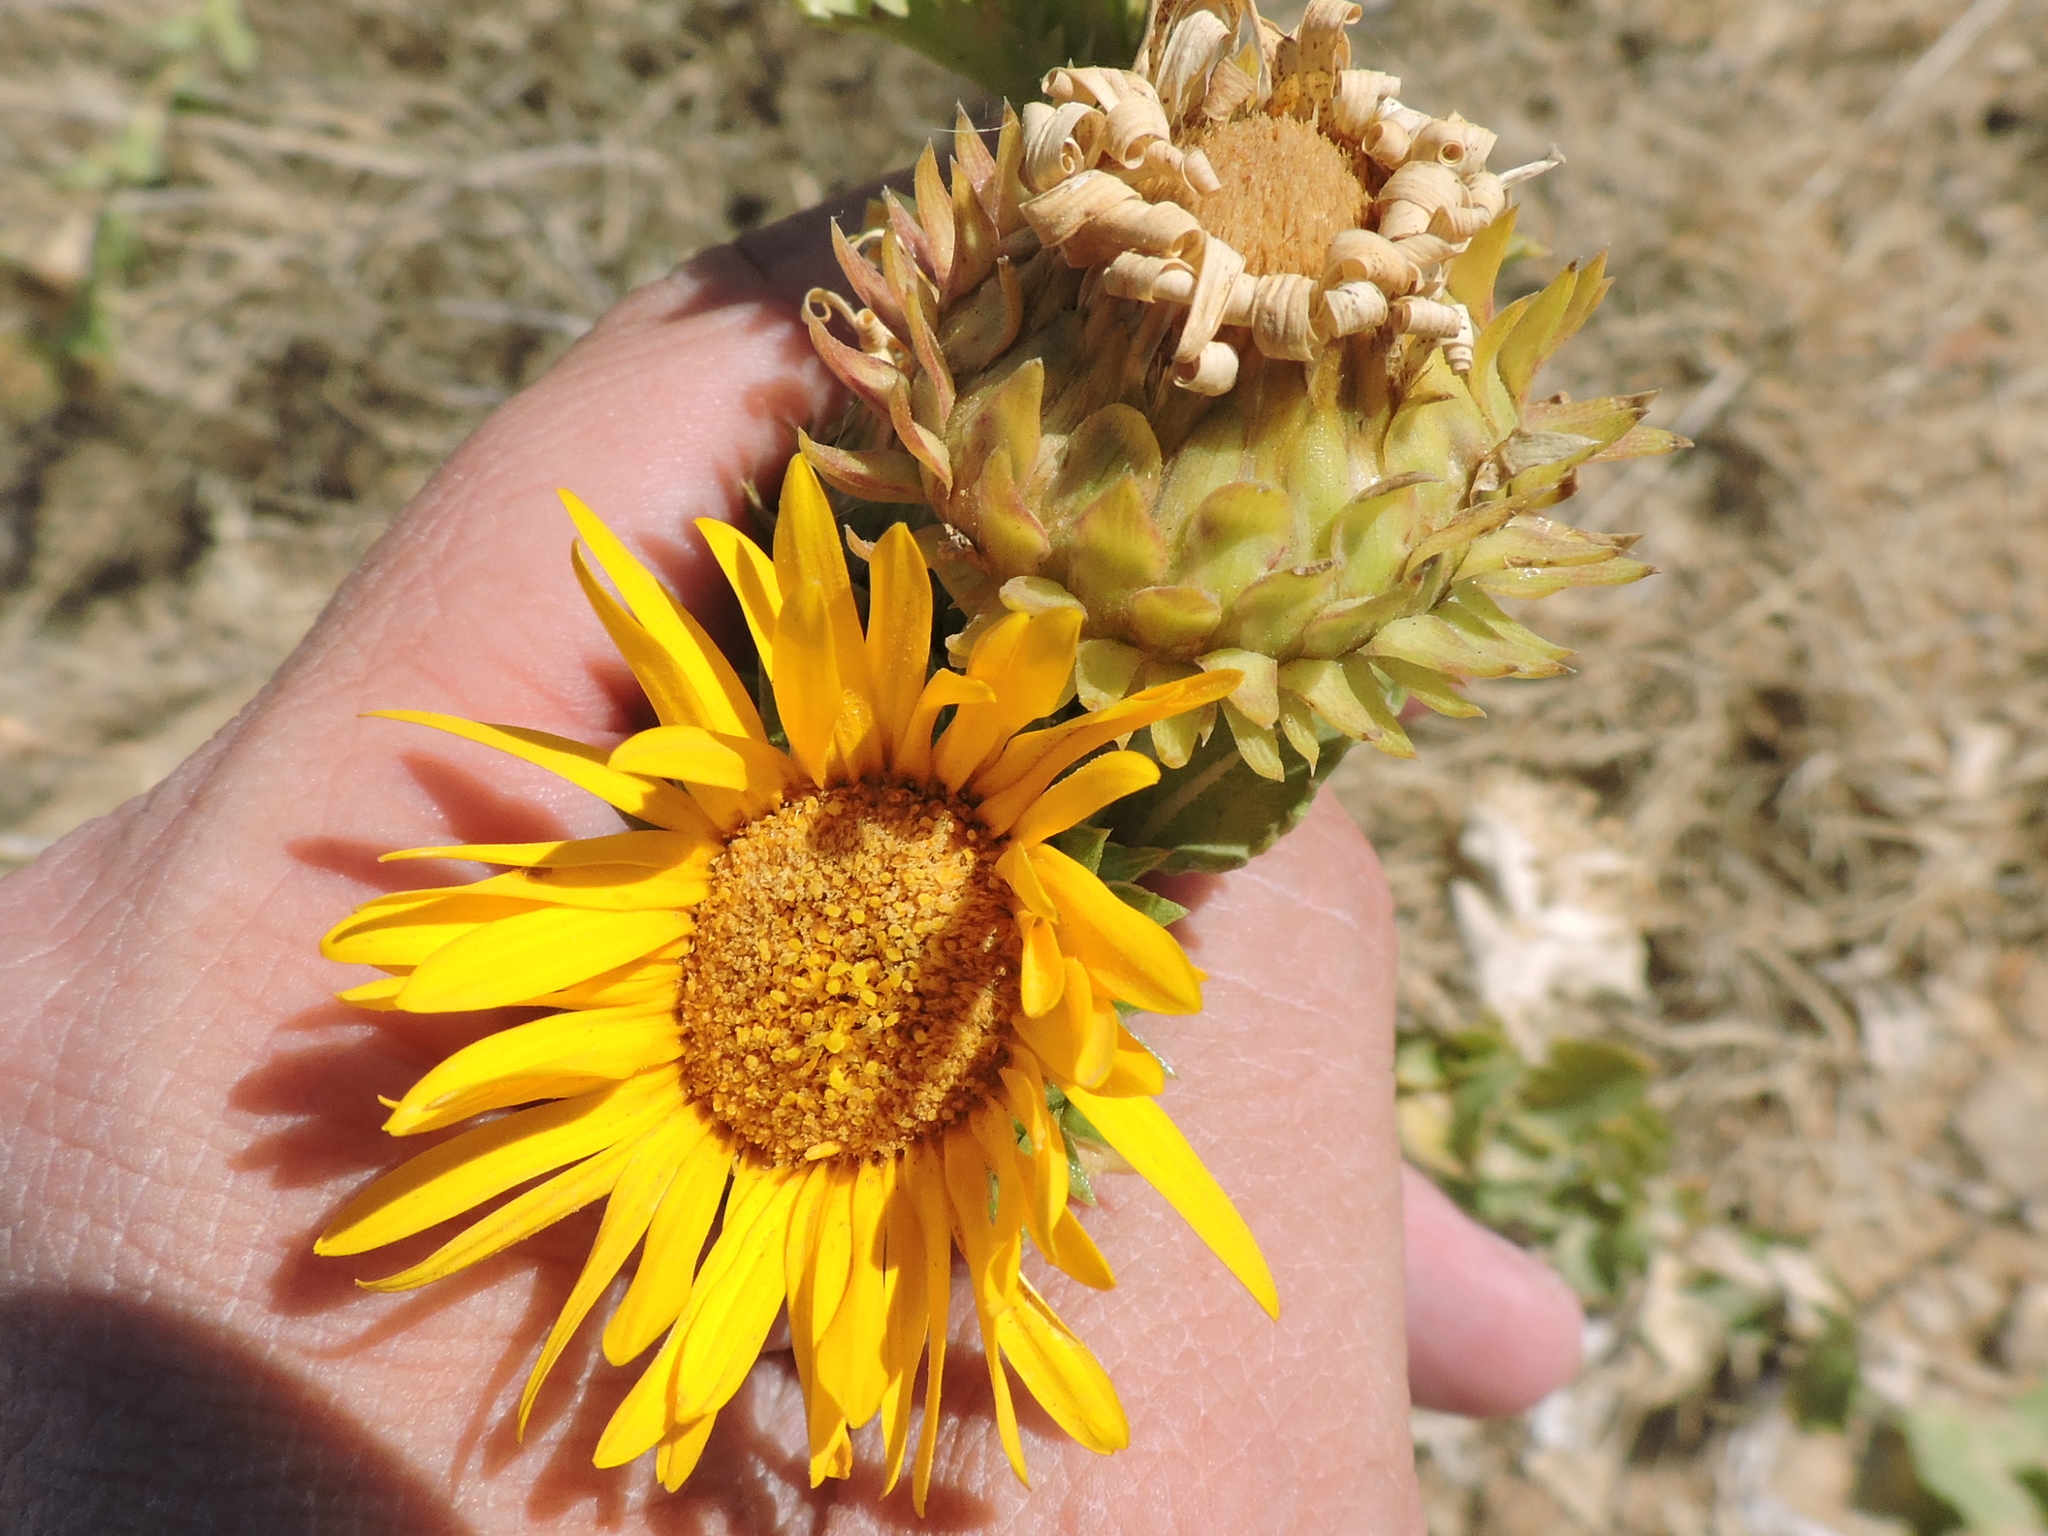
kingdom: Plantae
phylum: Tracheophyta
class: Magnoliopsida
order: Asterales
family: Asteraceae
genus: Grindelia
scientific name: Grindelia ciliata
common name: Goldenweed
